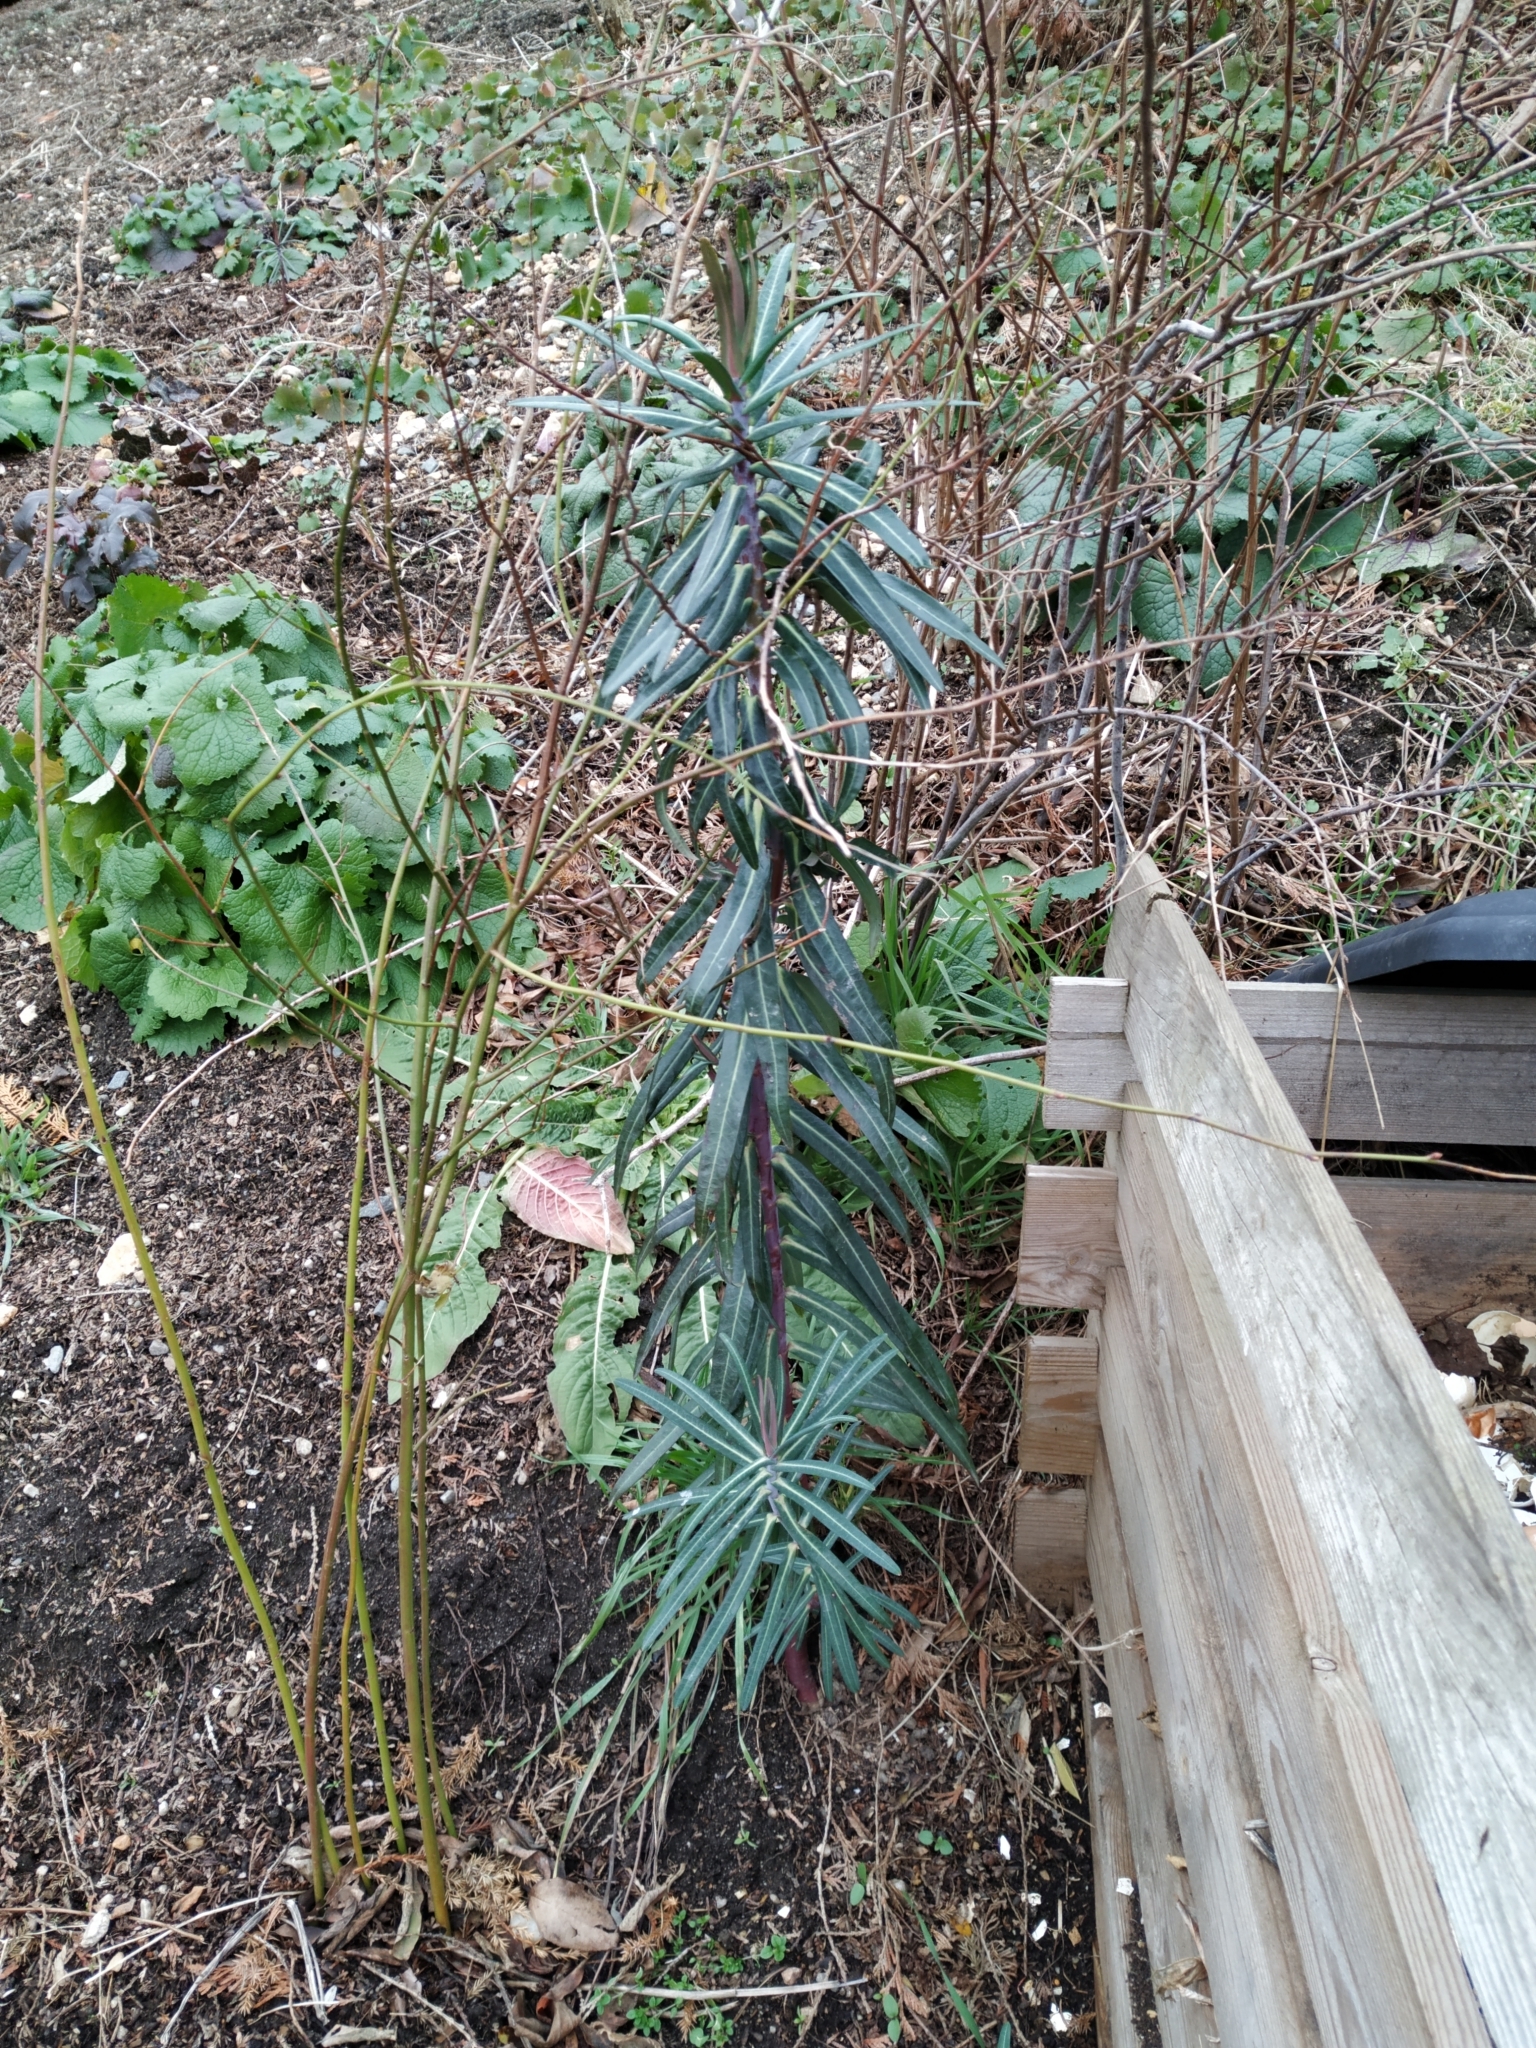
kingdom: Plantae
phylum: Tracheophyta
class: Magnoliopsida
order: Malpighiales
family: Euphorbiaceae
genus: Euphorbia
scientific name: Euphorbia lathyris
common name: Caper spurge
